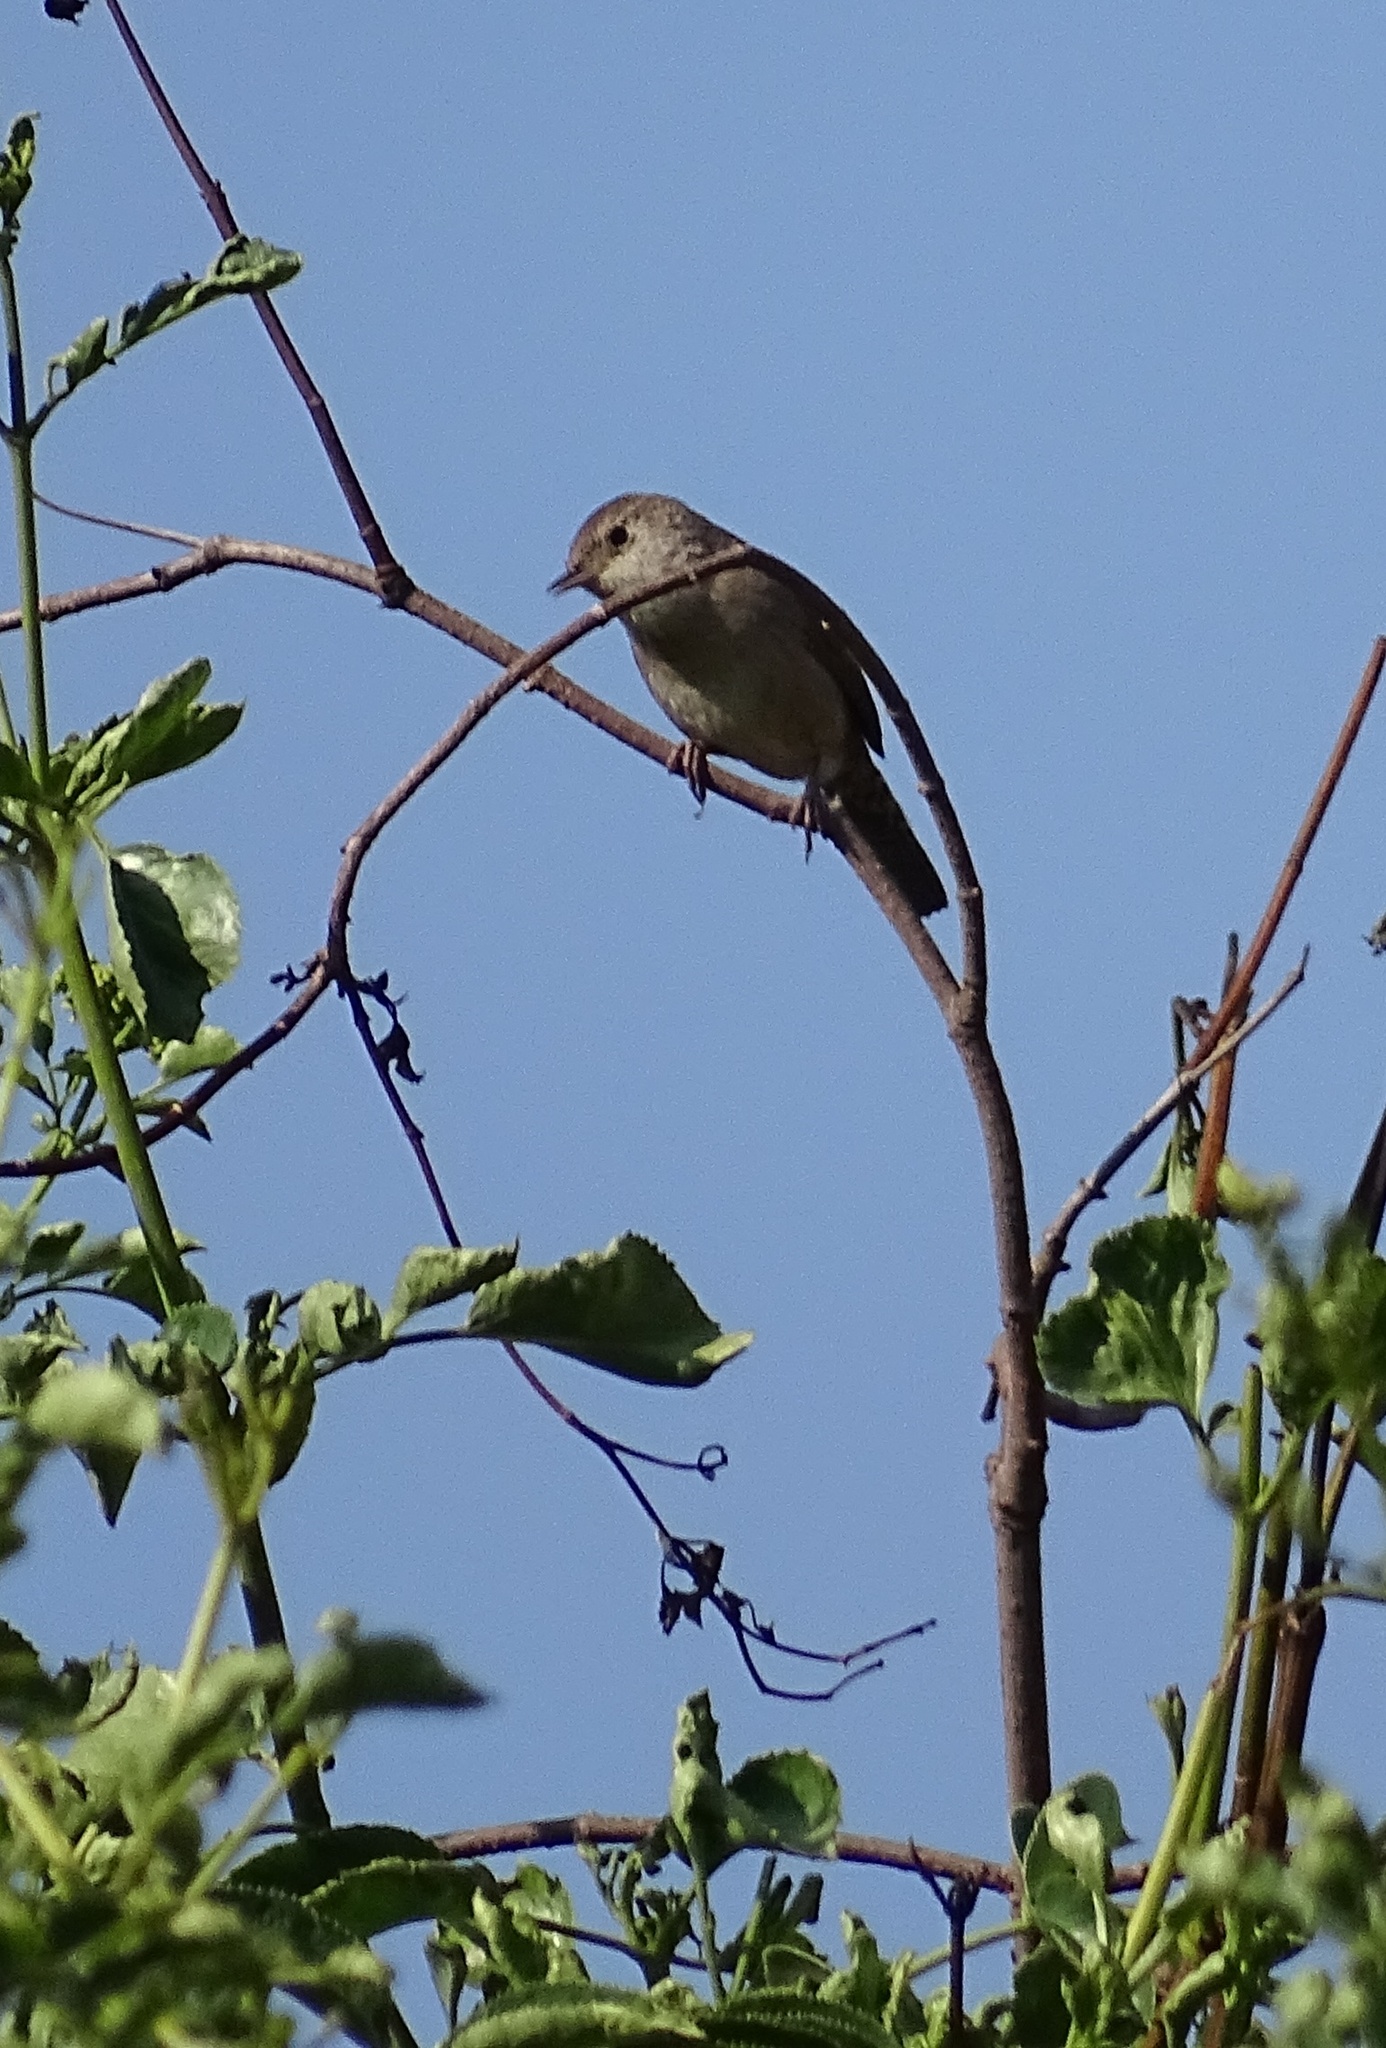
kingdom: Animalia
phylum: Chordata
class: Aves
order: Passeriformes
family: Troglodytidae
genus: Troglodytes
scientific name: Troglodytes aedon
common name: House wren
